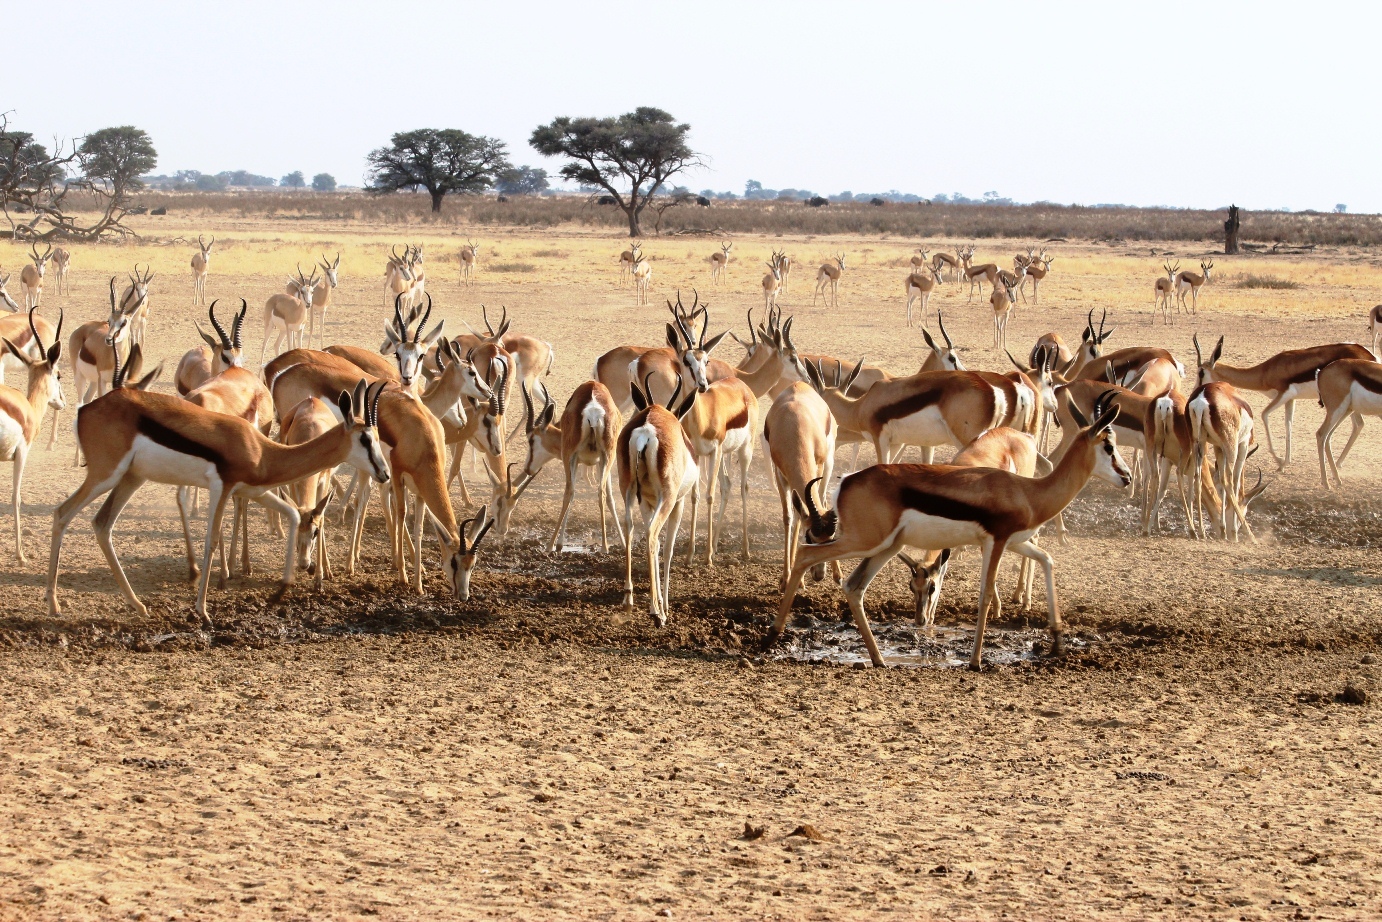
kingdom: Animalia
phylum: Chordata
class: Mammalia
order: Artiodactyla
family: Bovidae
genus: Antidorcas
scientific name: Antidorcas marsupialis
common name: Springbok
